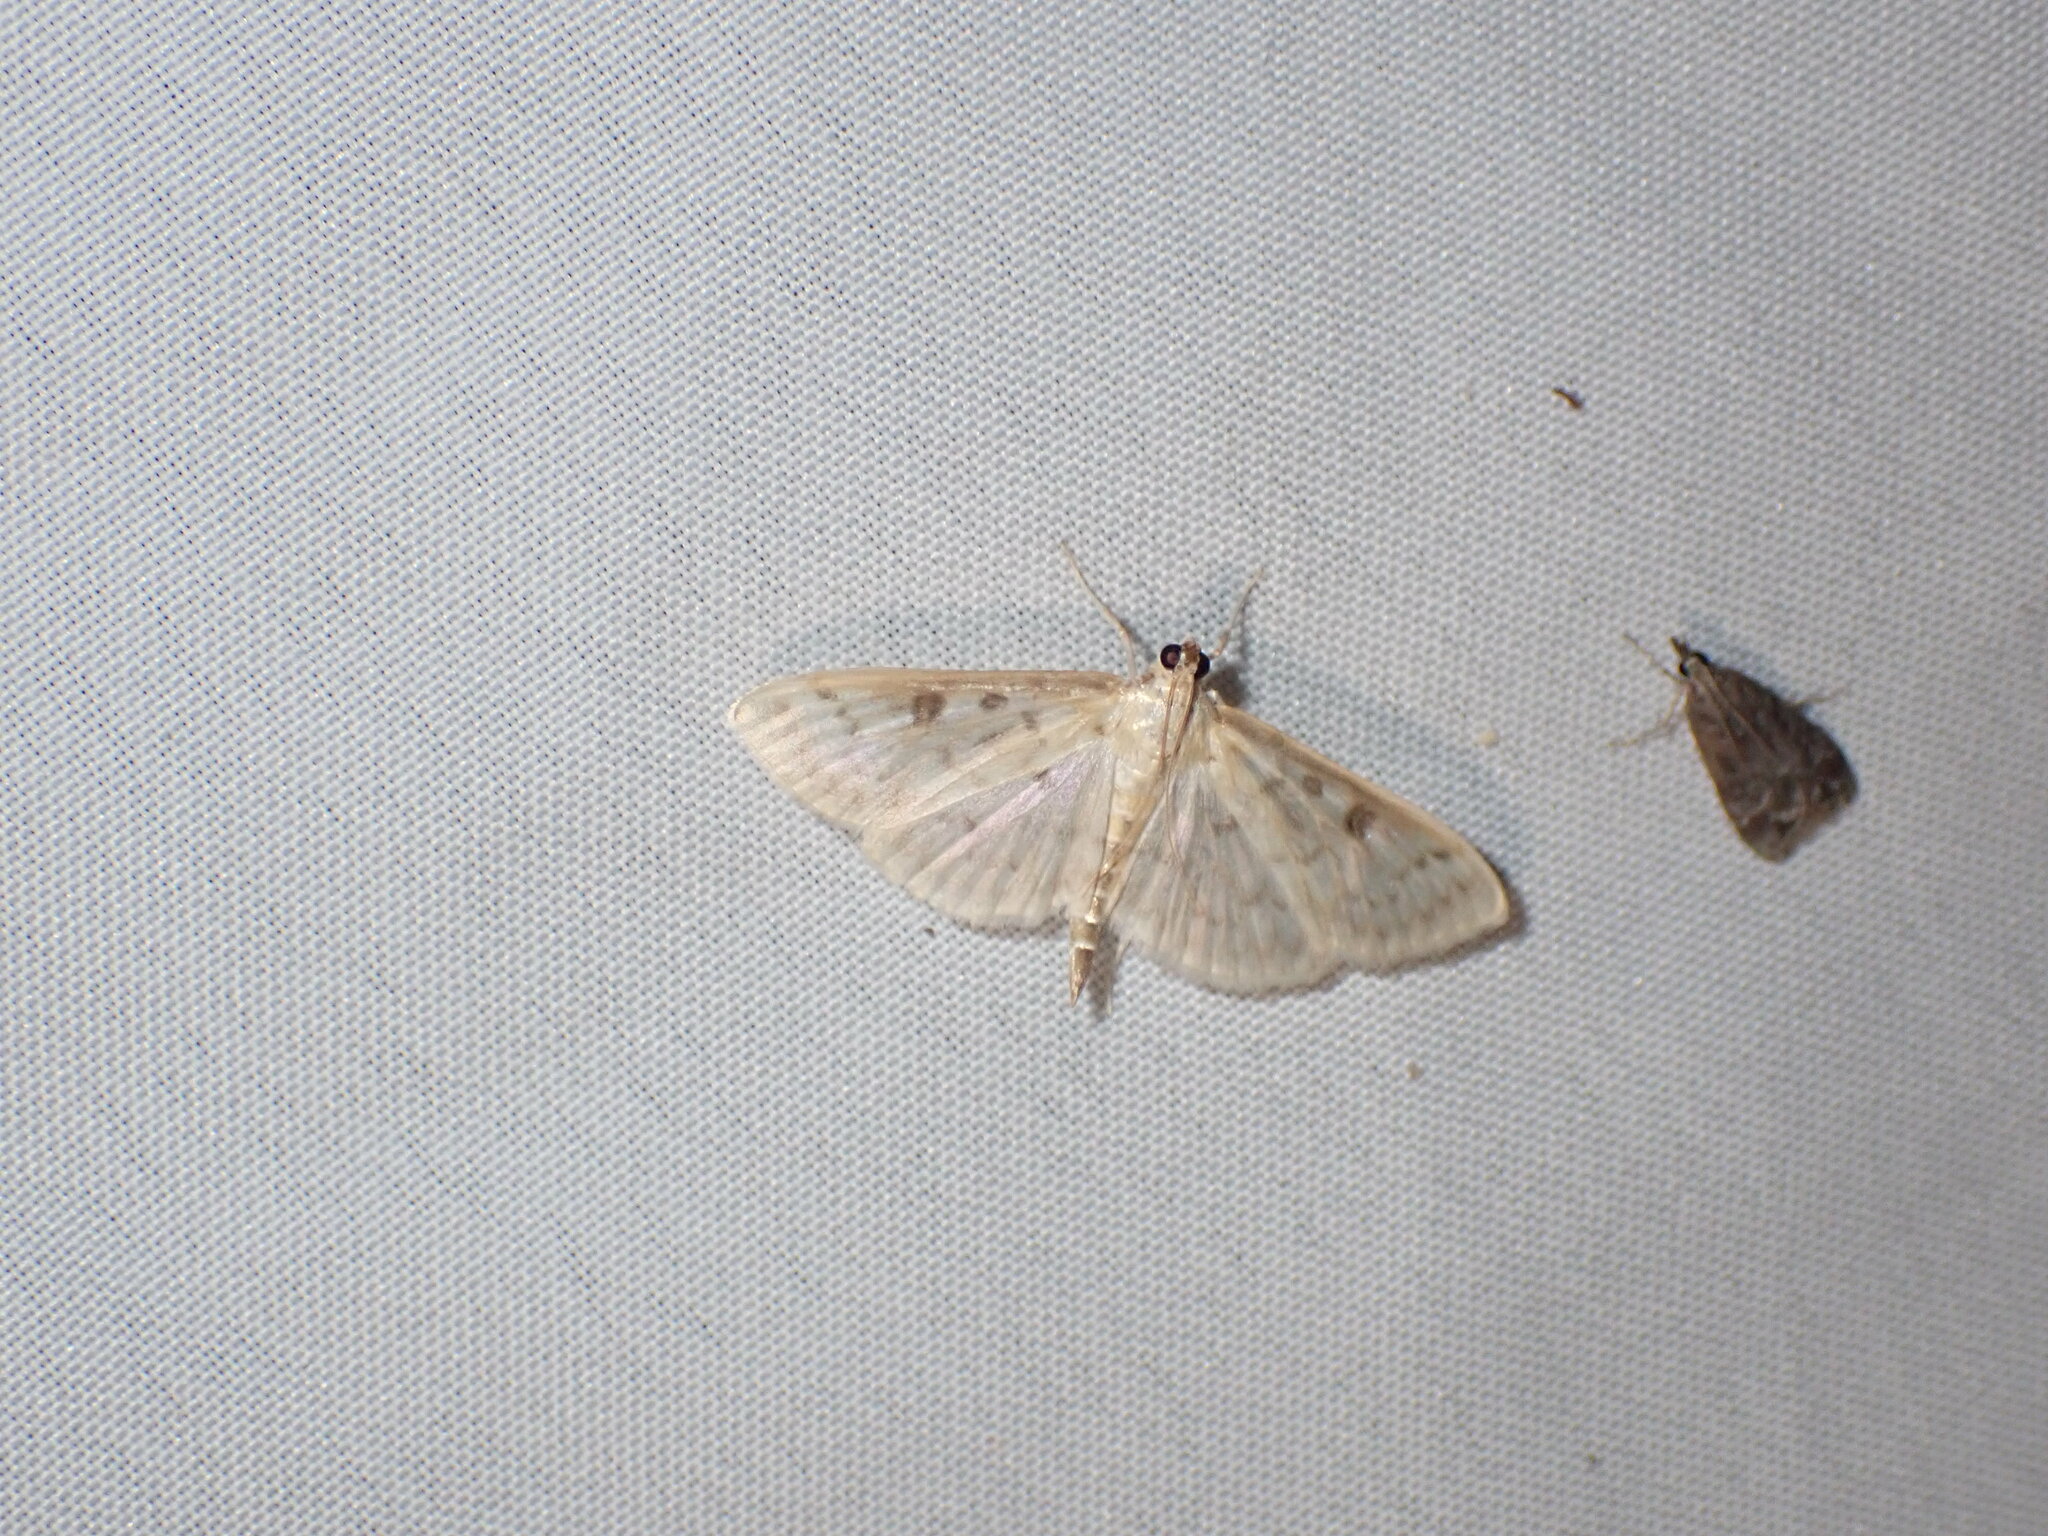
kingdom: Animalia
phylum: Arthropoda
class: Insecta
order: Lepidoptera
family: Crambidae
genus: Herpetogramma
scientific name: Herpetogramma aquilonalis
